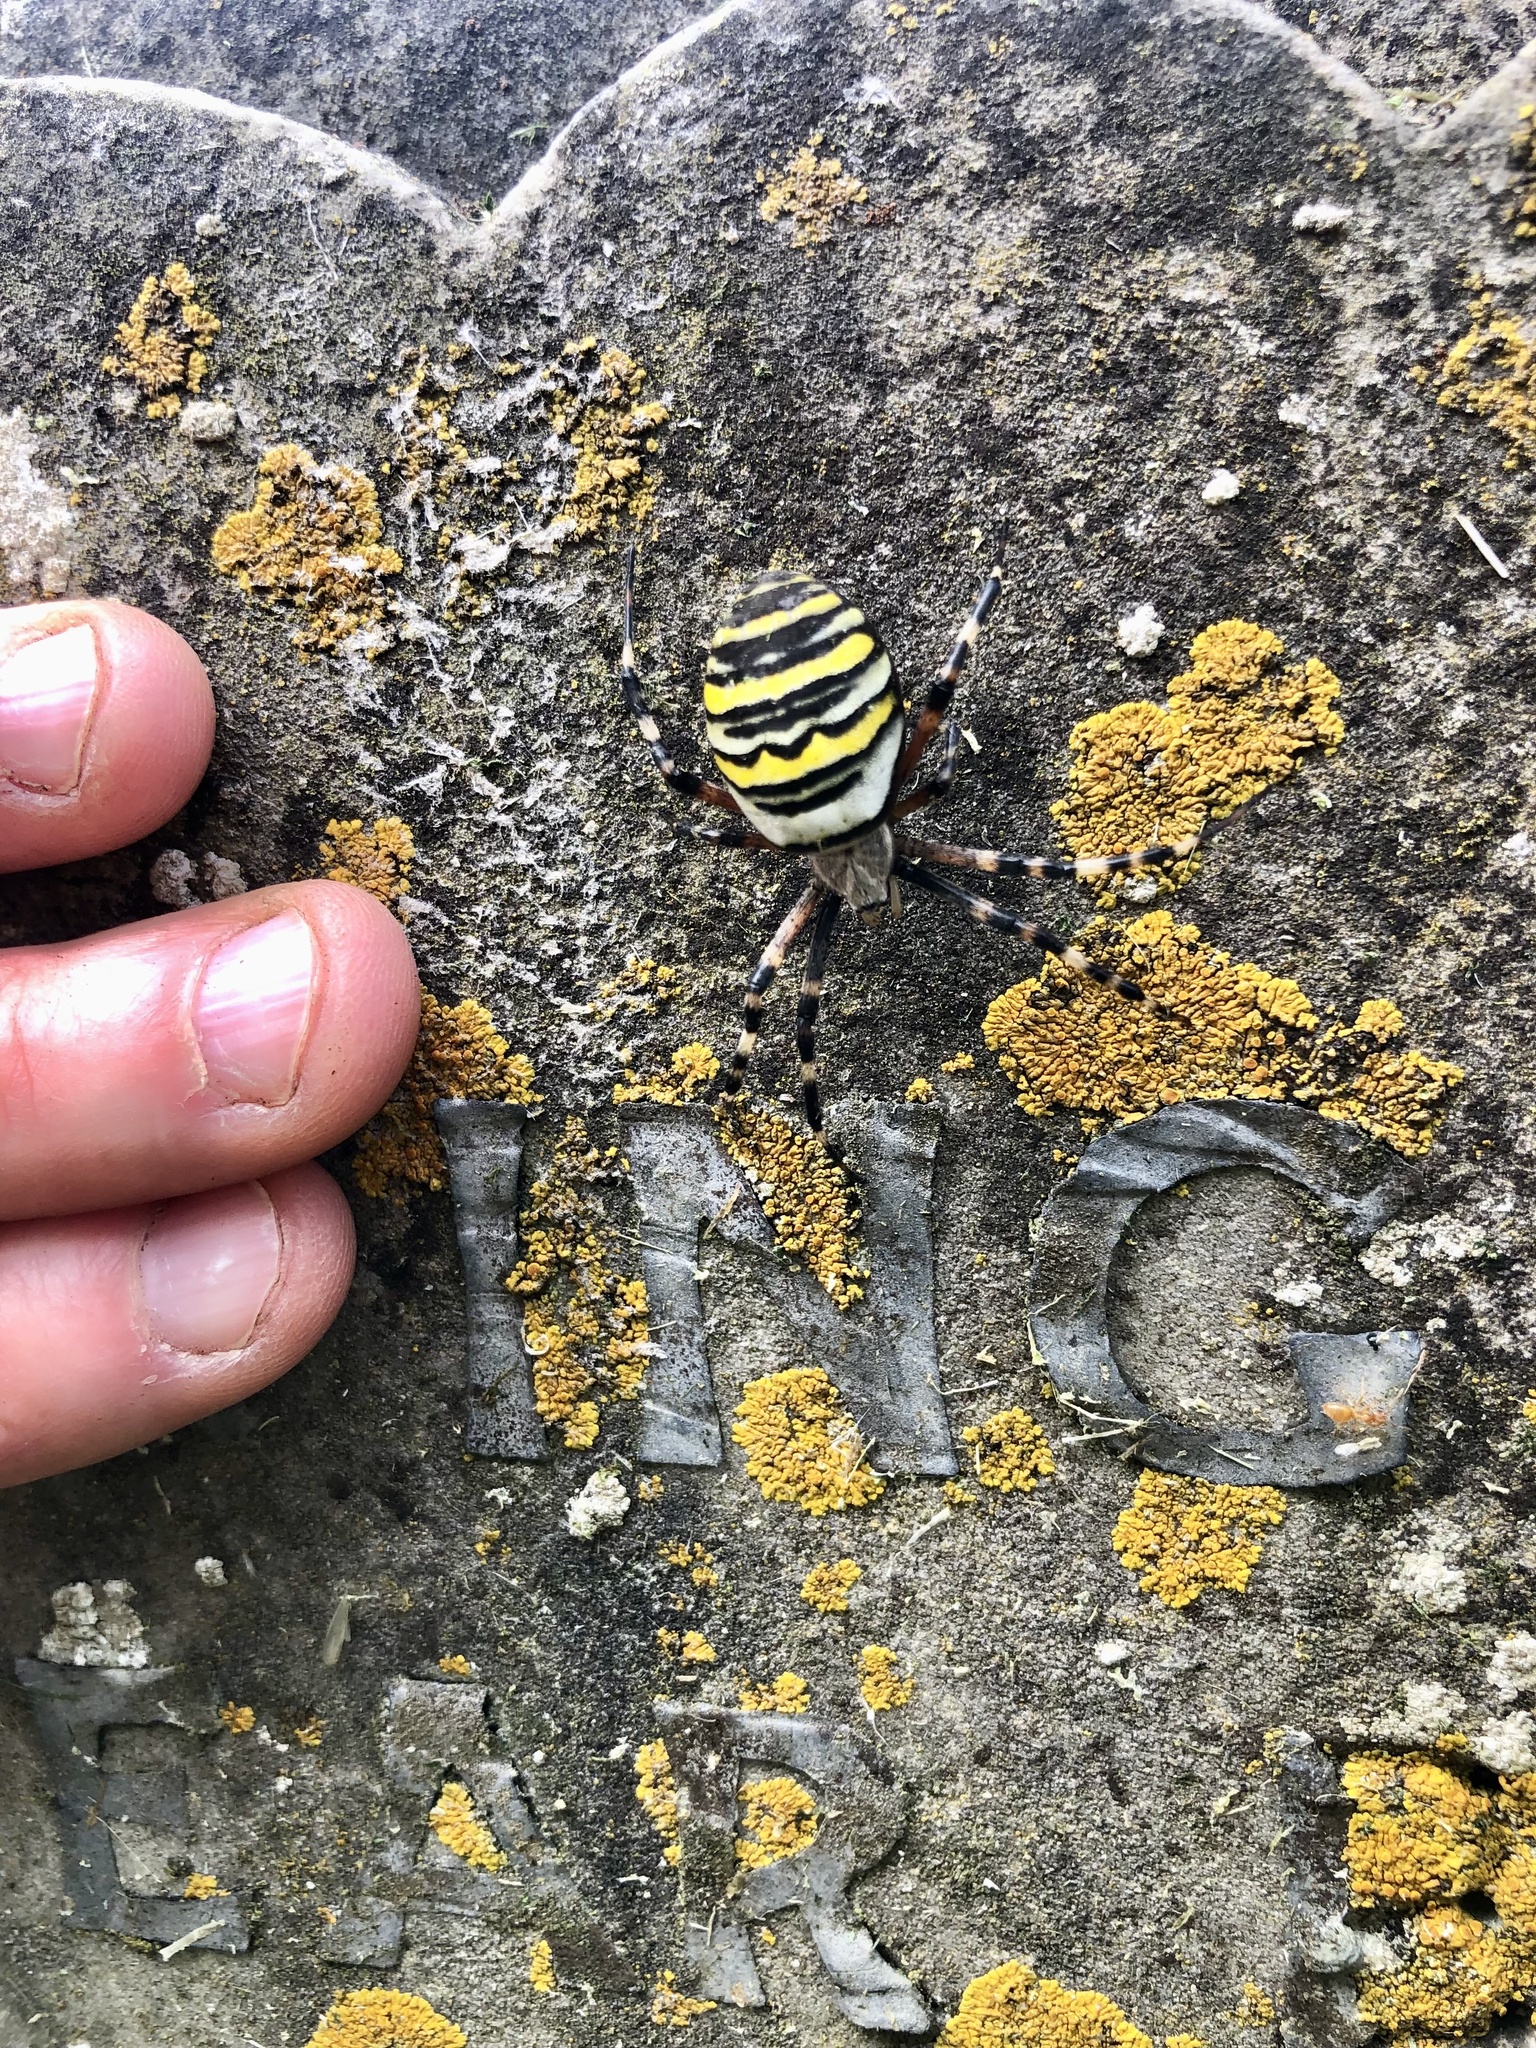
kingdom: Animalia
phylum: Arthropoda
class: Arachnida
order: Araneae
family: Araneidae
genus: Argiope
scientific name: Argiope bruennichi
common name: Wasp spider
